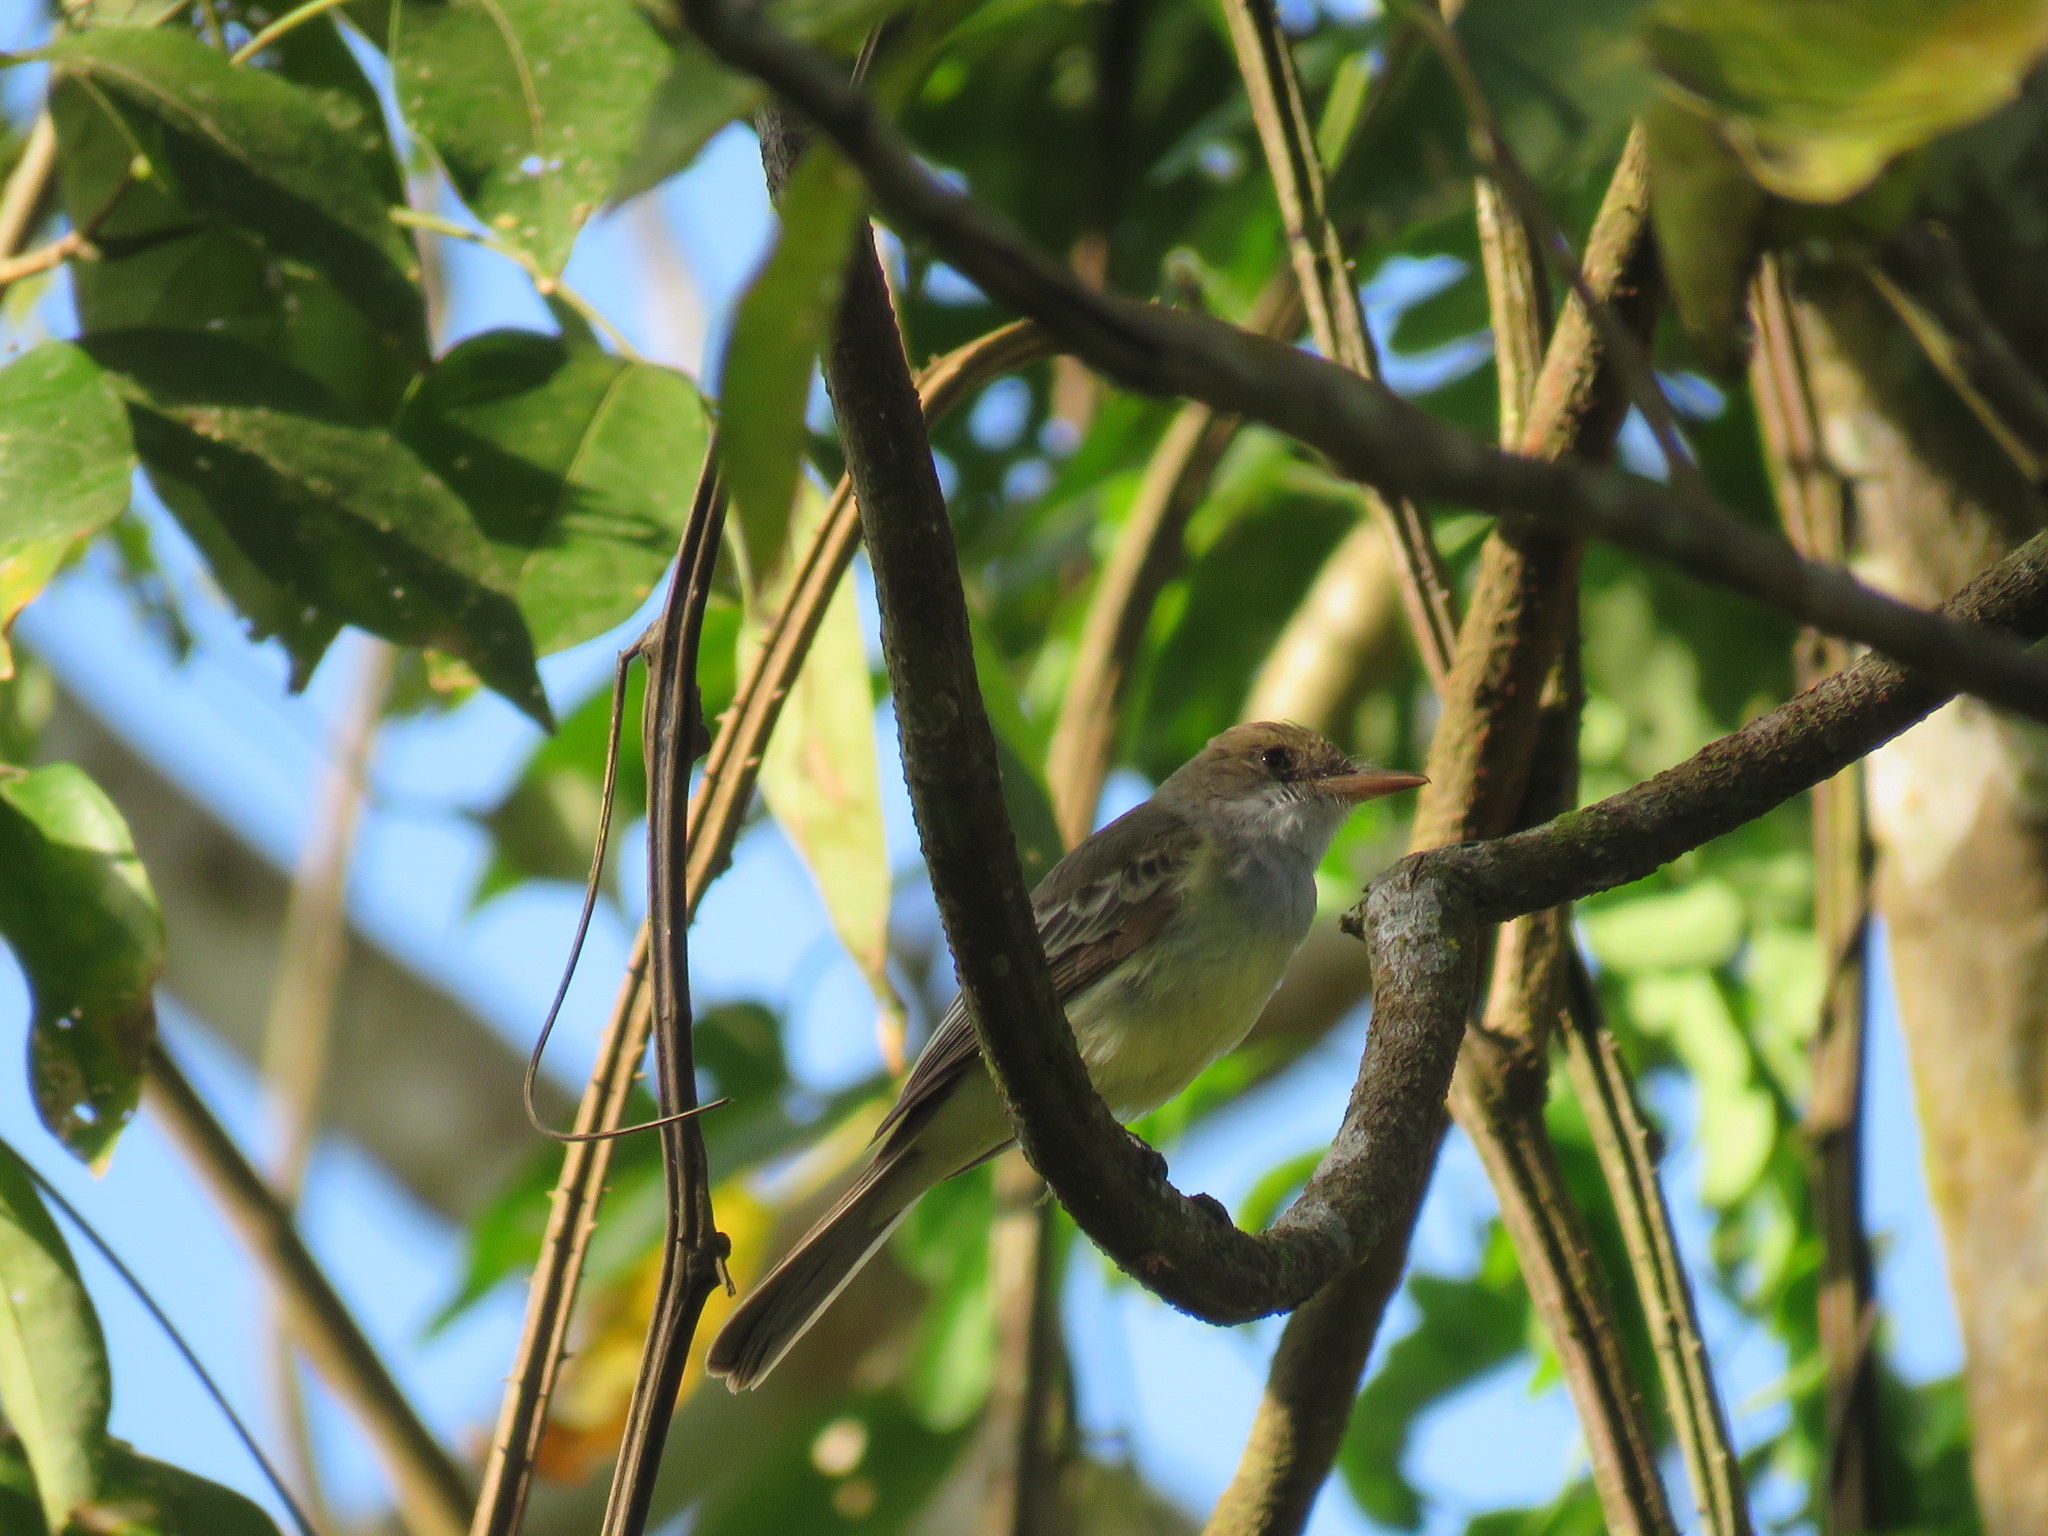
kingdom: Animalia
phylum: Chordata
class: Aves
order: Passeriformes
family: Tyrannidae
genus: Myiarchus
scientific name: Myiarchus swainsoni
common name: Swainson's flycatcher
